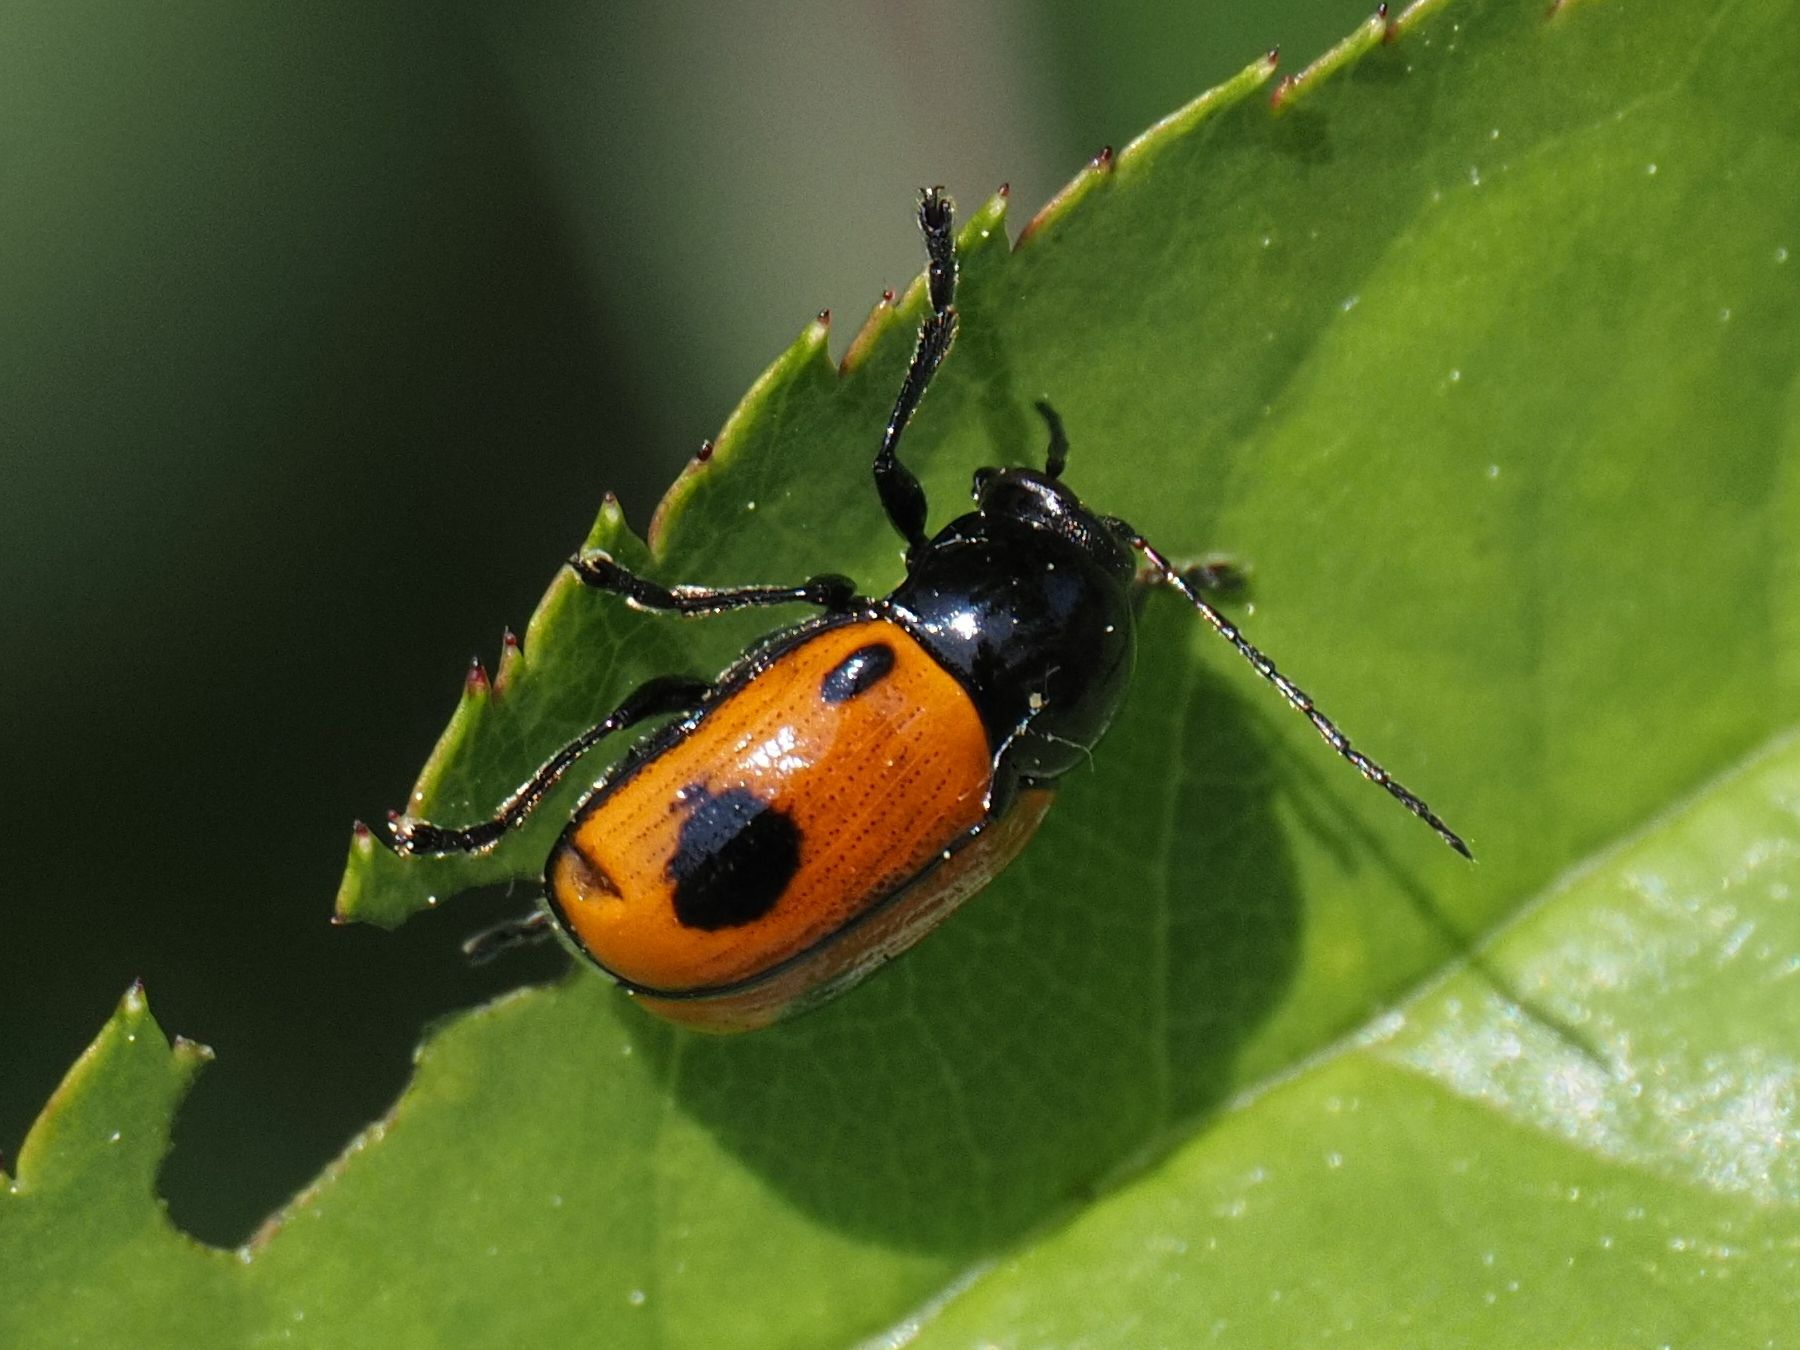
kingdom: Animalia
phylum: Arthropoda
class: Insecta
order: Coleoptera
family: Chrysomelidae
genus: Chiridopsis
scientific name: Chiridopsis bipunctata
